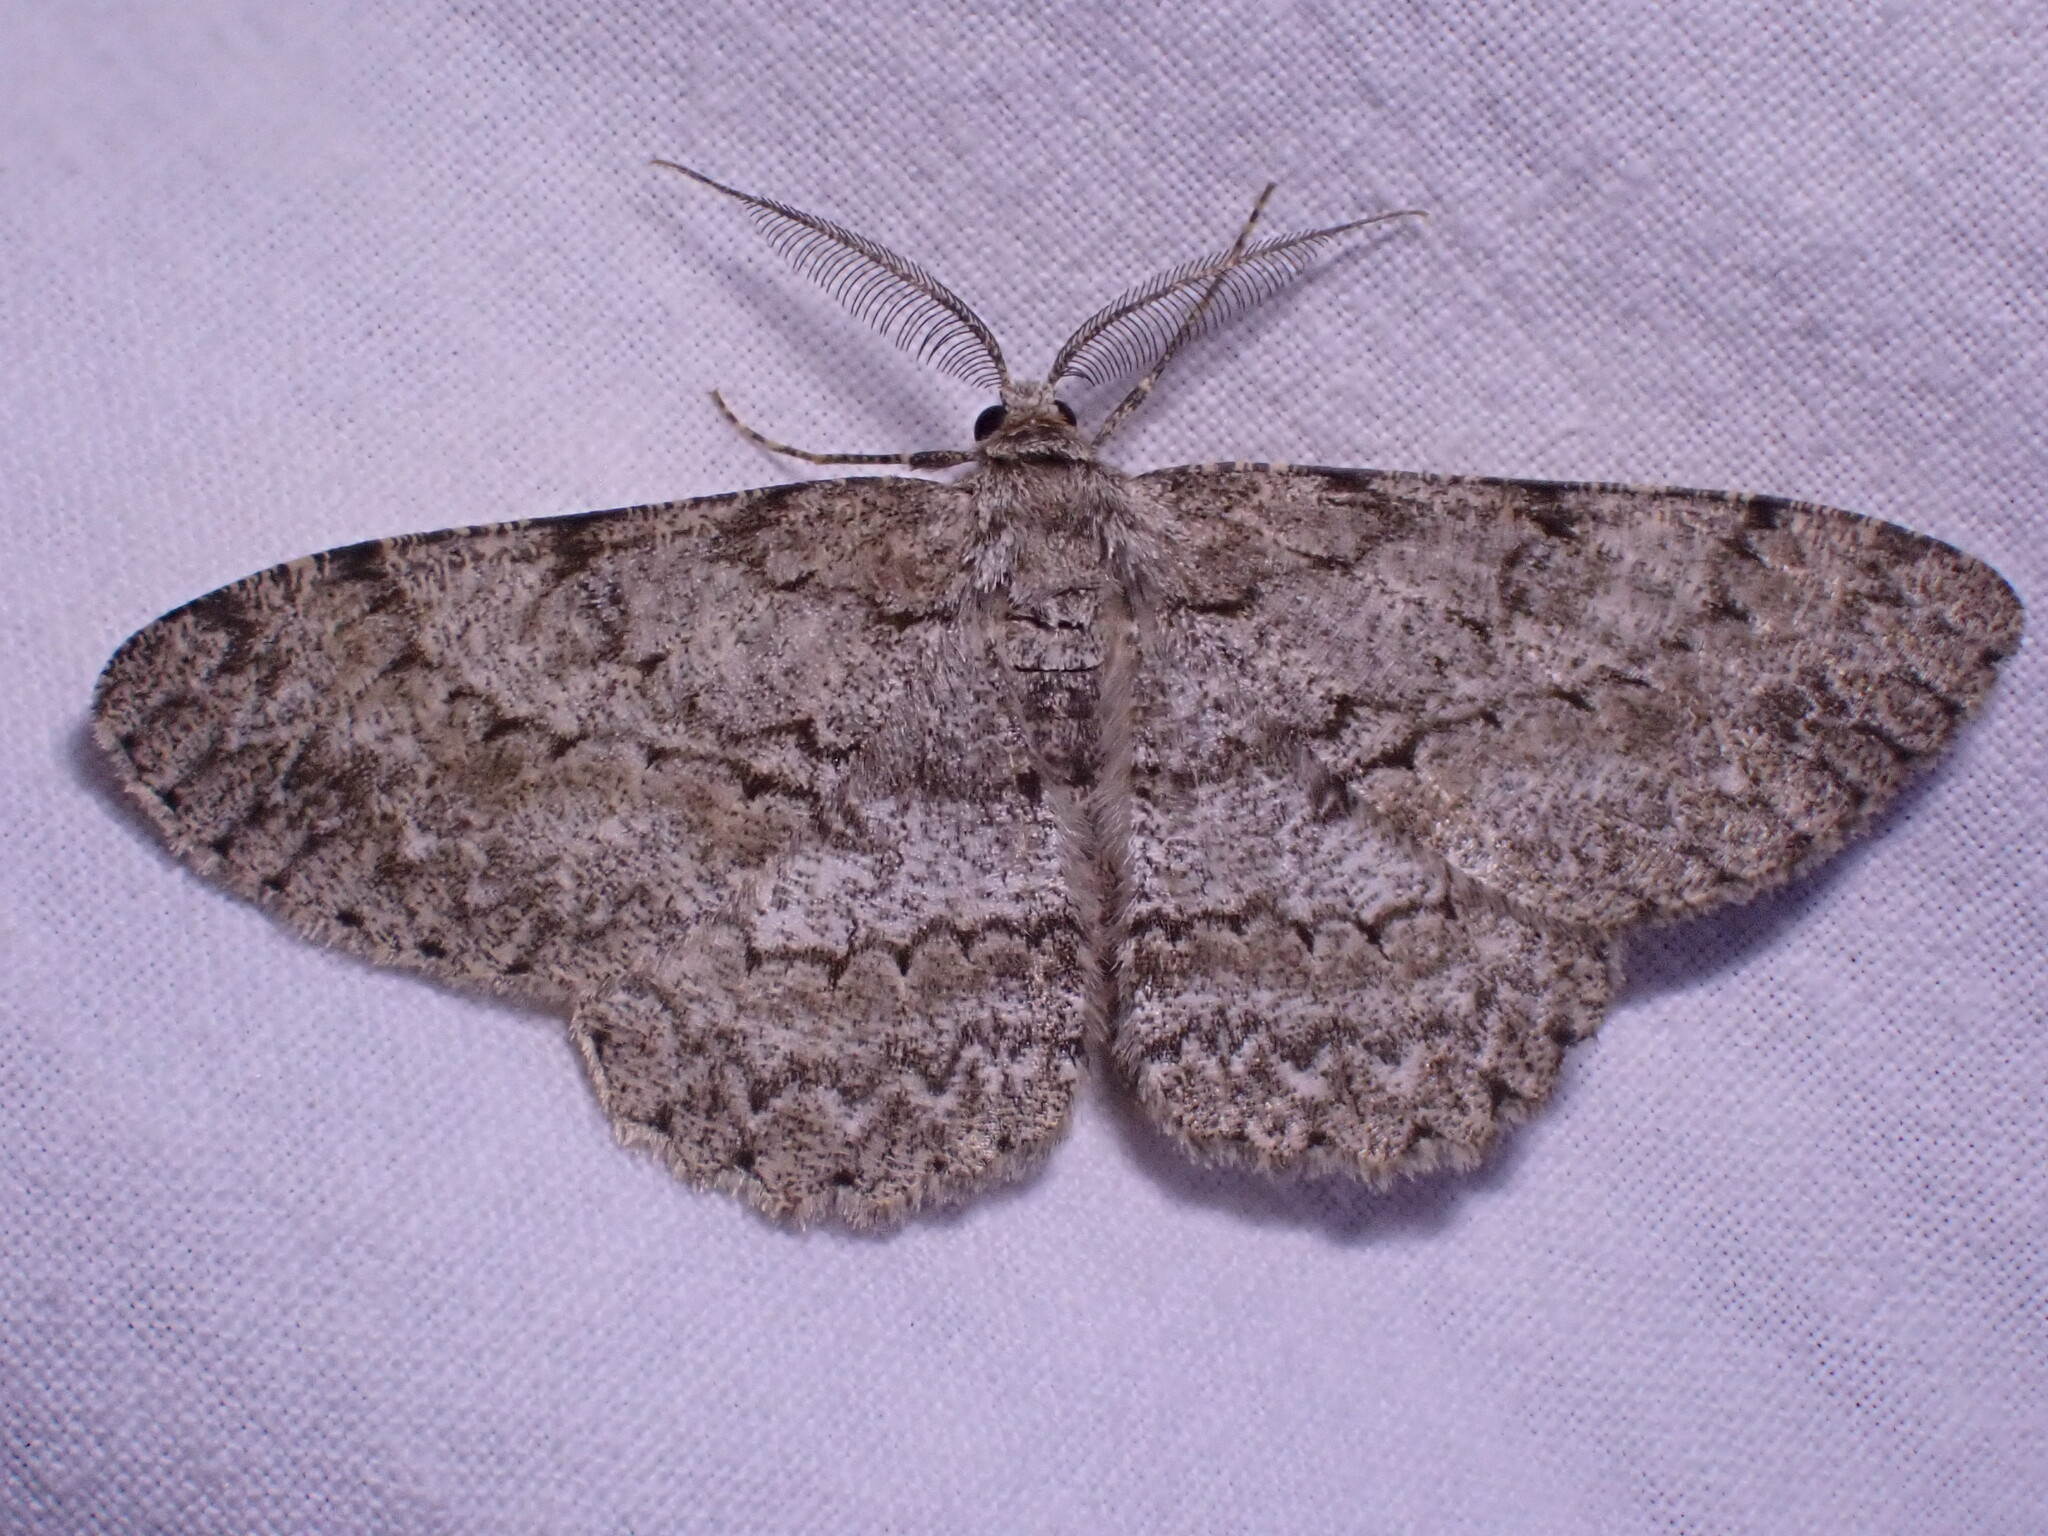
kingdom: Animalia
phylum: Arthropoda
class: Insecta
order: Lepidoptera
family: Geometridae
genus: Hypomecis
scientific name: Hypomecis punctinalis
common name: Pale oak beauty
